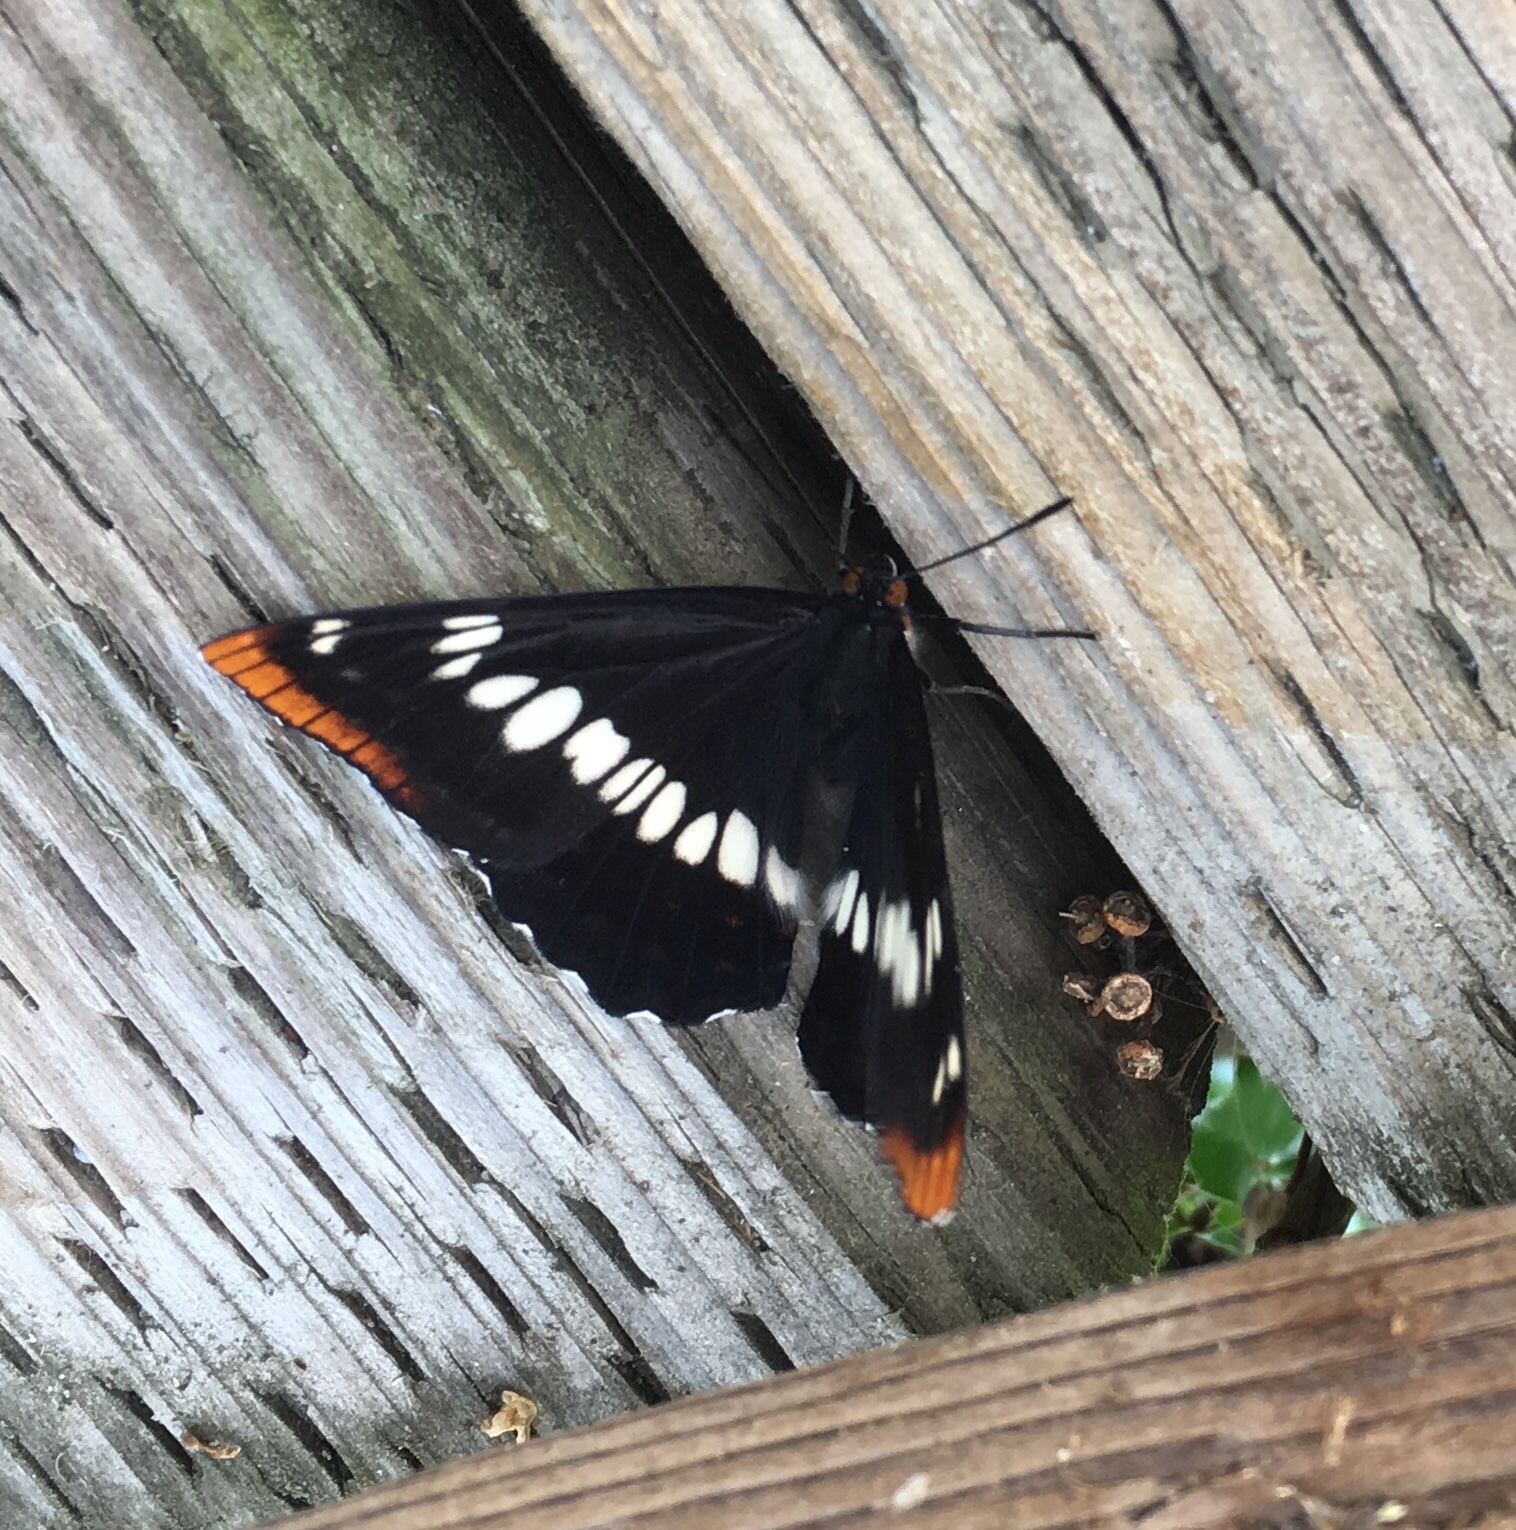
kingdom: Animalia
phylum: Arthropoda
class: Insecta
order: Lepidoptera
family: Nymphalidae
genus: Limenitis
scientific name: Limenitis lorquini
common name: Lorquin's admiral
